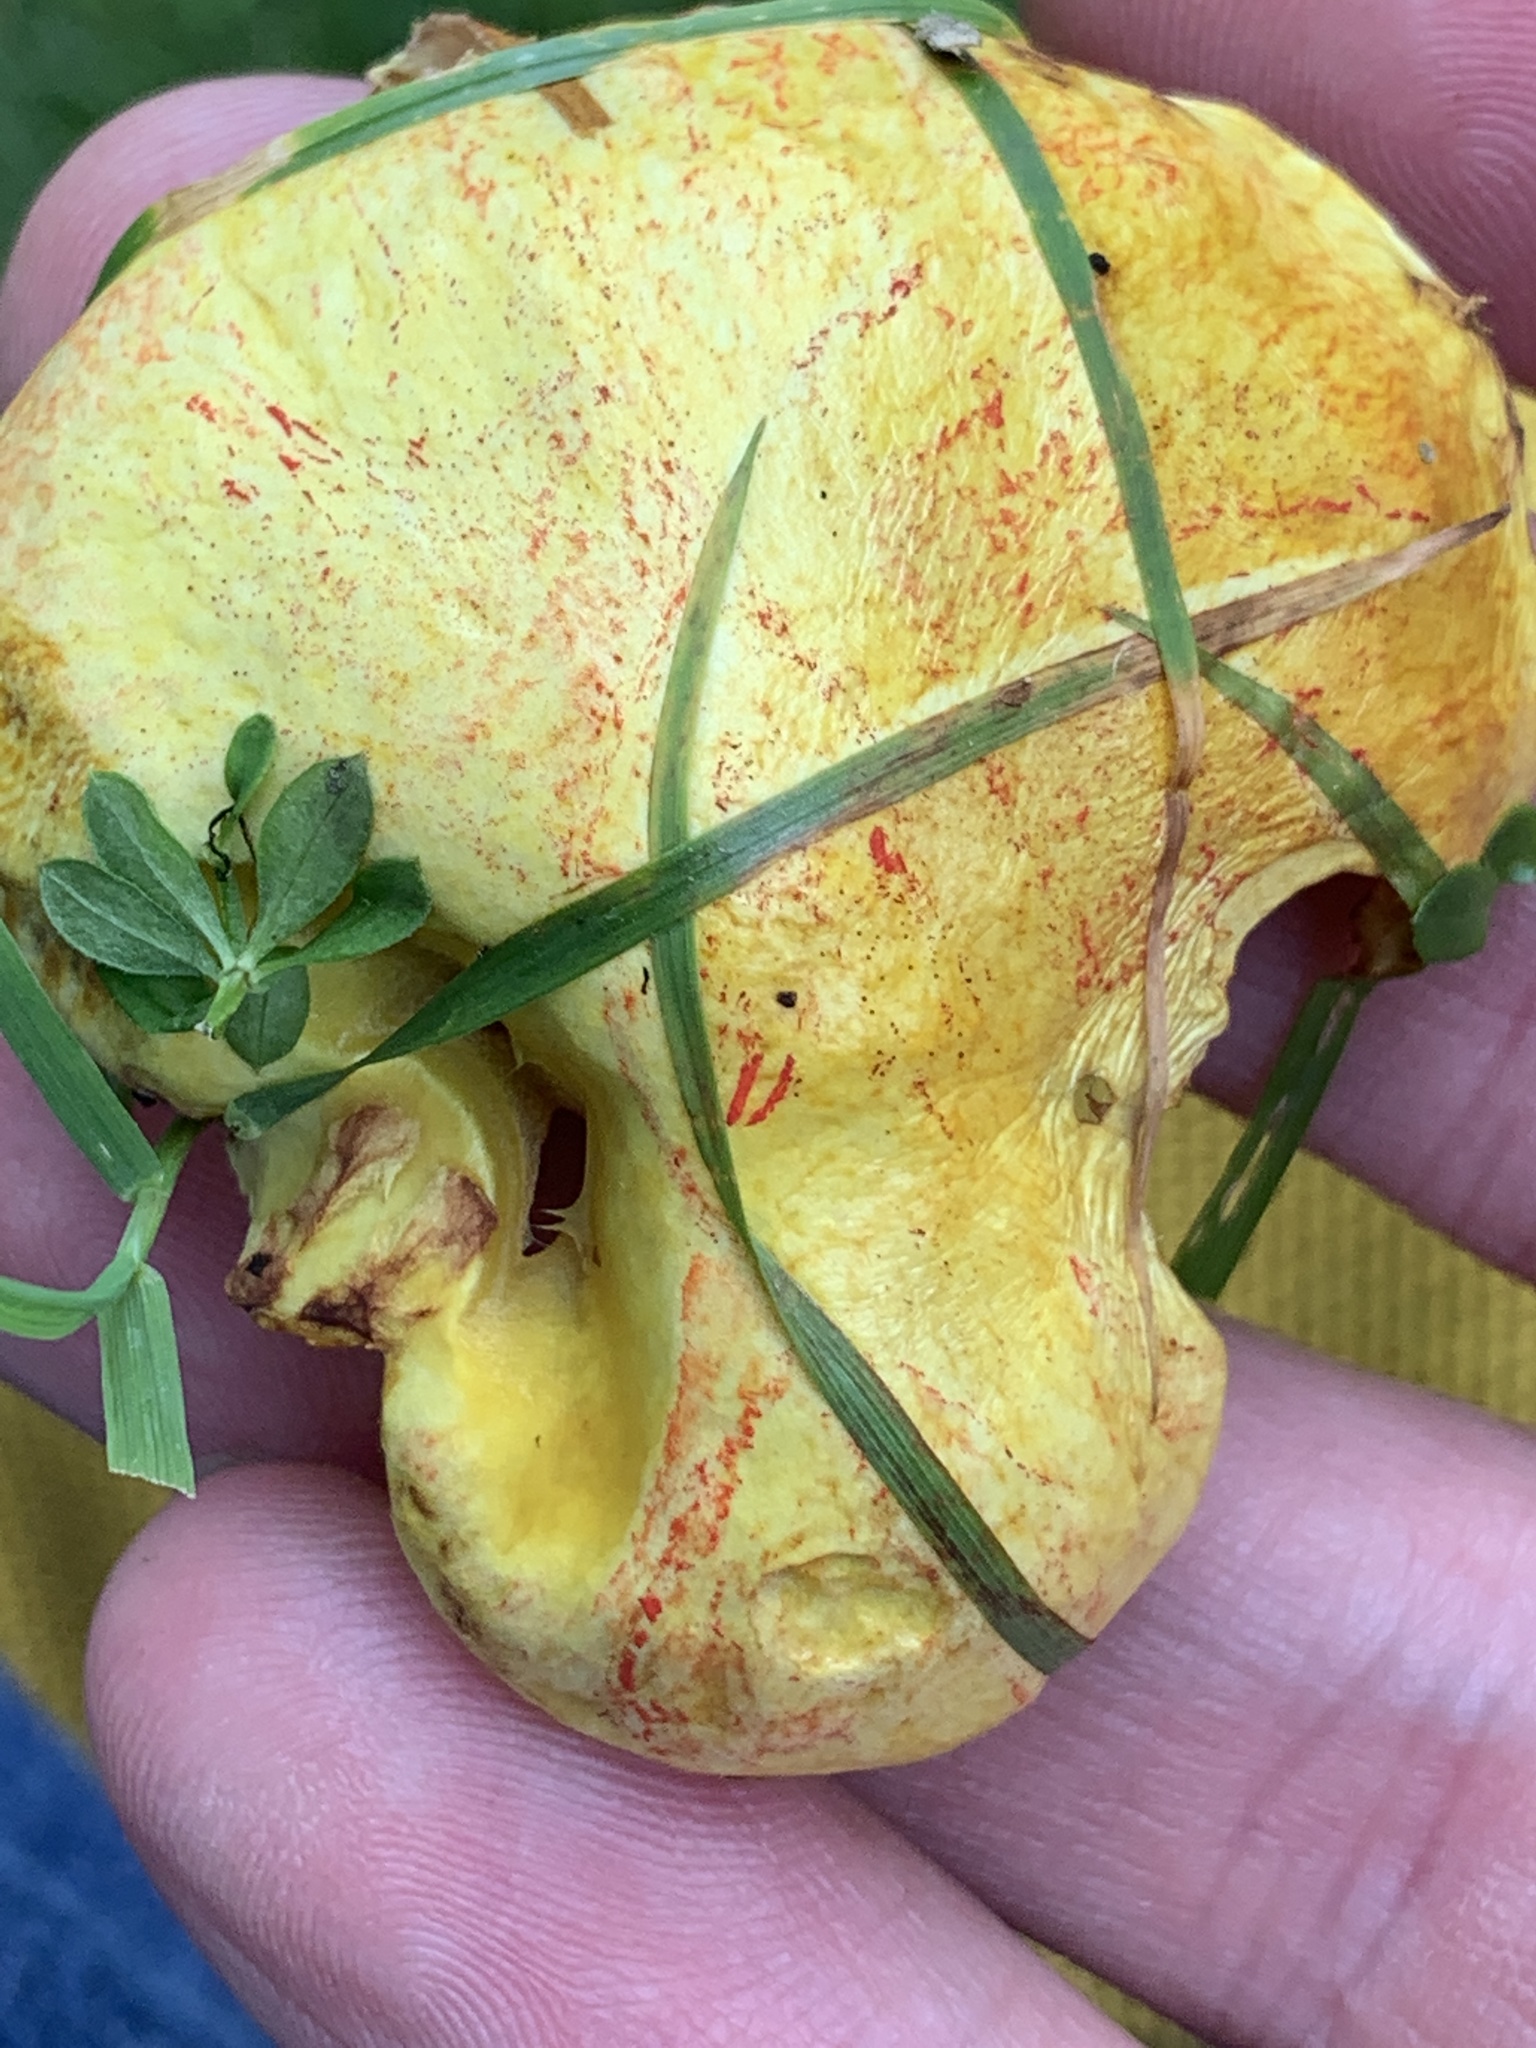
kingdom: Fungi
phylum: Basidiomycota
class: Agaricomycetes
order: Boletales
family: Suillaceae
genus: Suillus
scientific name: Suillus americanus
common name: Chicken fat mushroom
